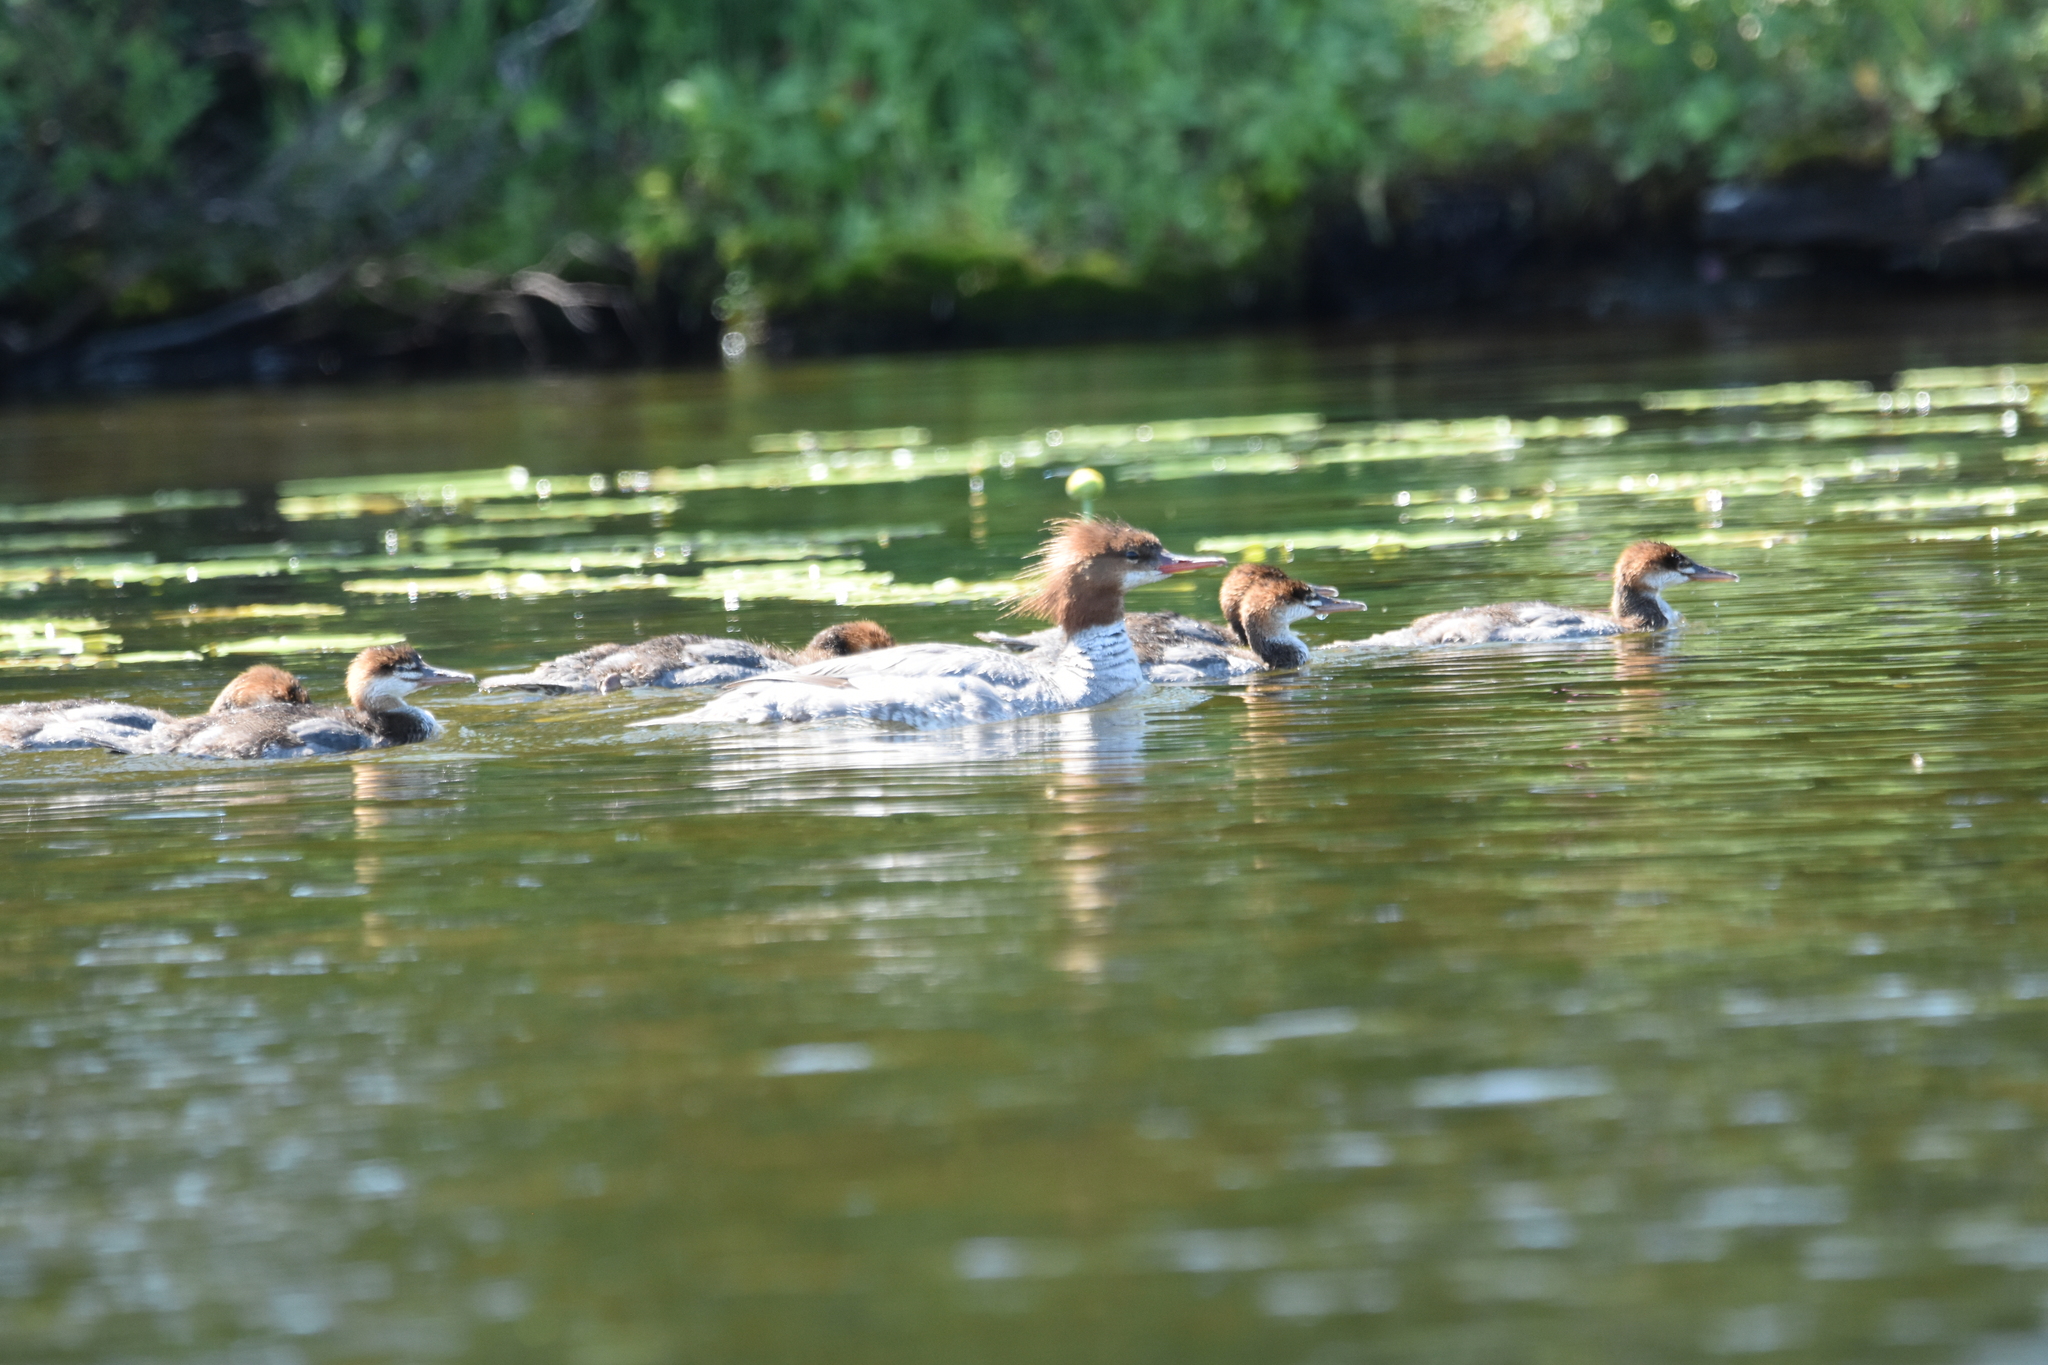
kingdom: Animalia
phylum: Chordata
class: Aves
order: Anseriformes
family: Anatidae
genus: Mergus
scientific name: Mergus merganser
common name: Common merganser
